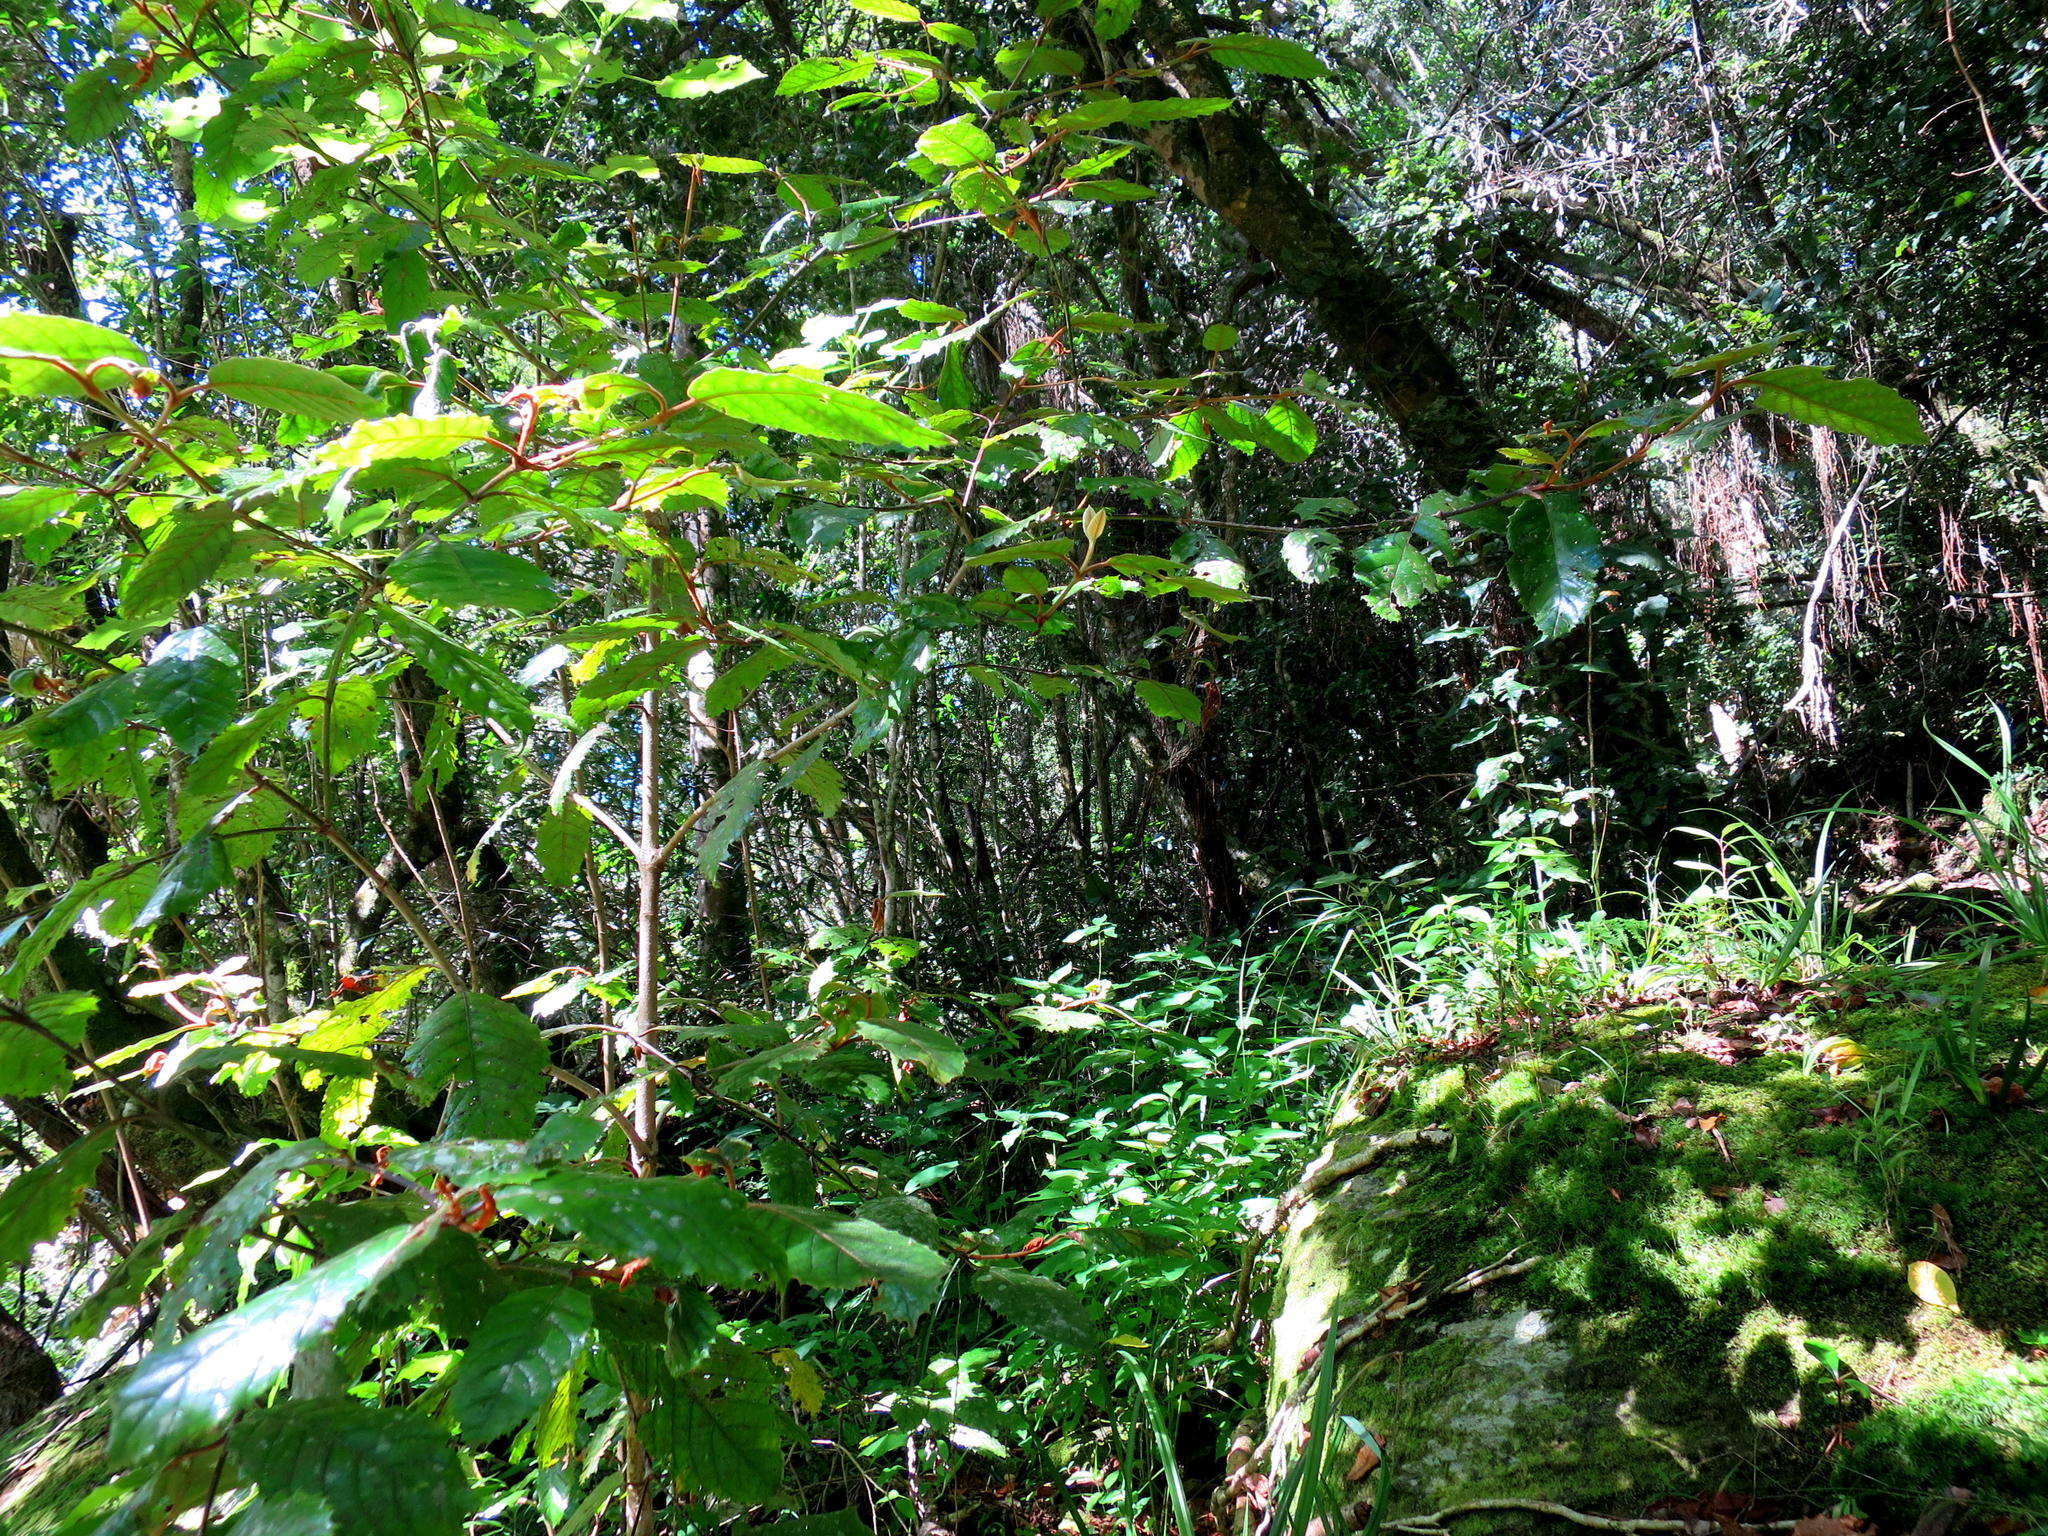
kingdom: Plantae
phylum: Tracheophyta
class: Magnoliopsida
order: Cornales
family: Curtisiaceae
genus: Curtisia
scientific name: Curtisia dentata
